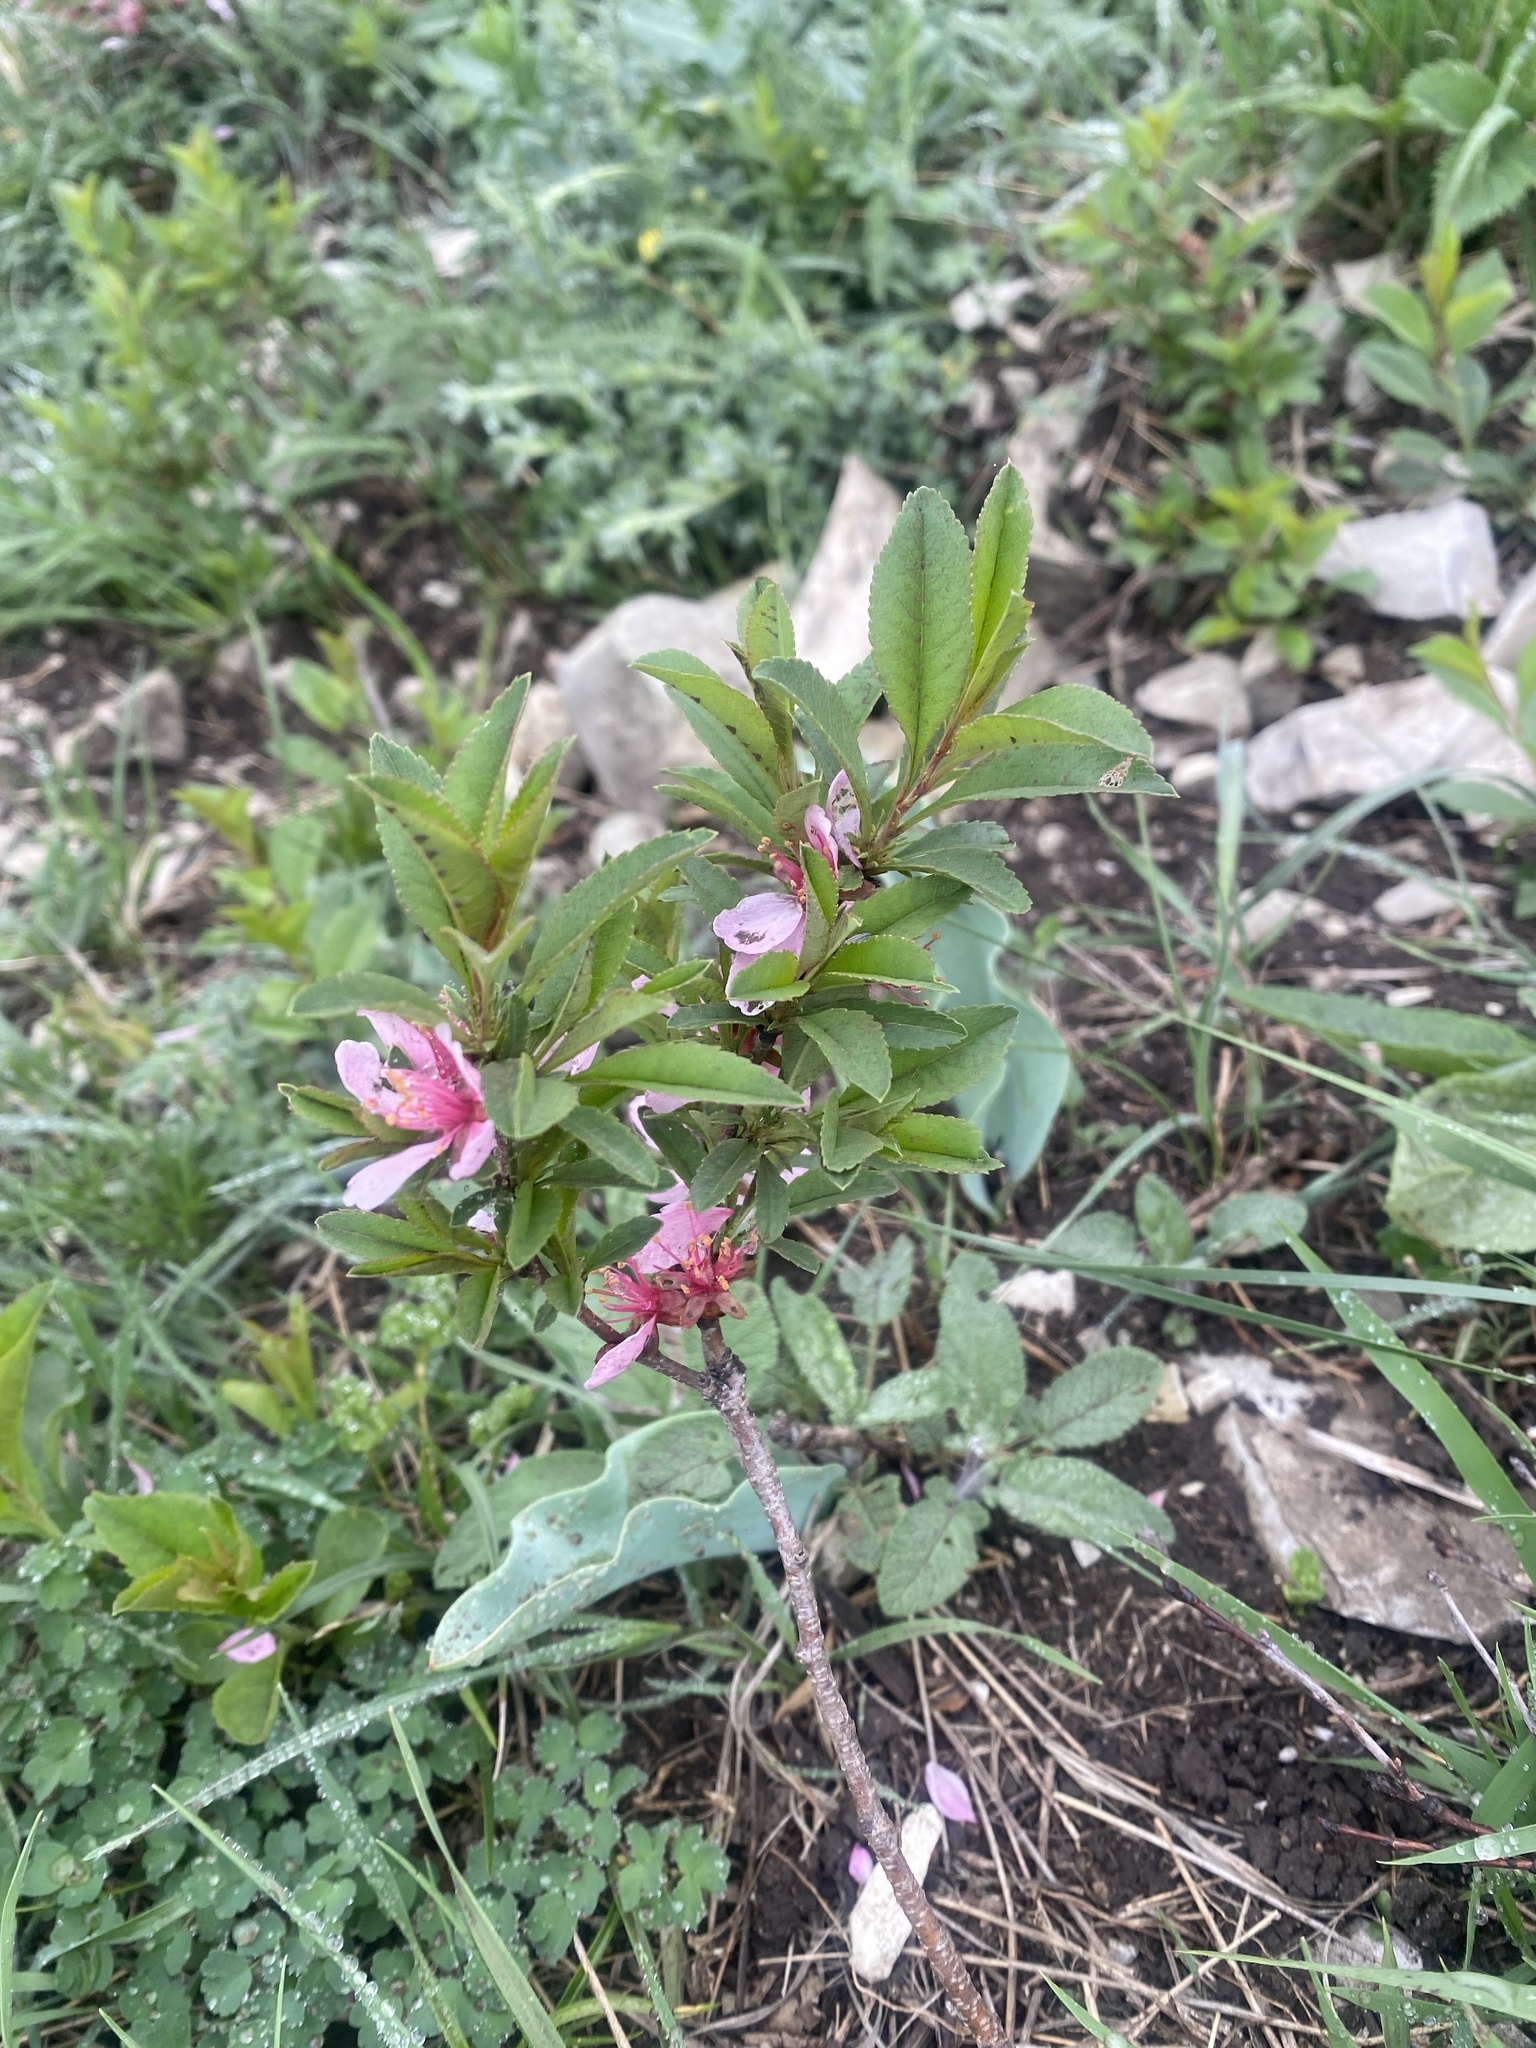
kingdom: Plantae
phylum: Tracheophyta
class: Magnoliopsida
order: Rosales
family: Rosaceae
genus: Prunus
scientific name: Prunus tenella
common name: Dwarf russian almond
